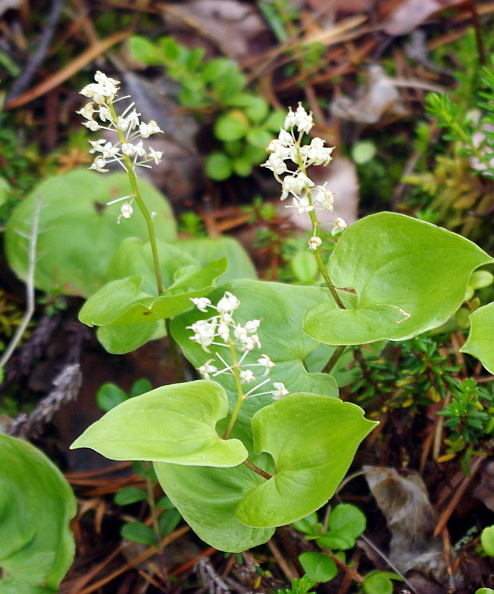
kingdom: Plantae
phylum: Tracheophyta
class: Liliopsida
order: Asparagales
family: Asparagaceae
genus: Maianthemum
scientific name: Maianthemum bifolium
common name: May lily
